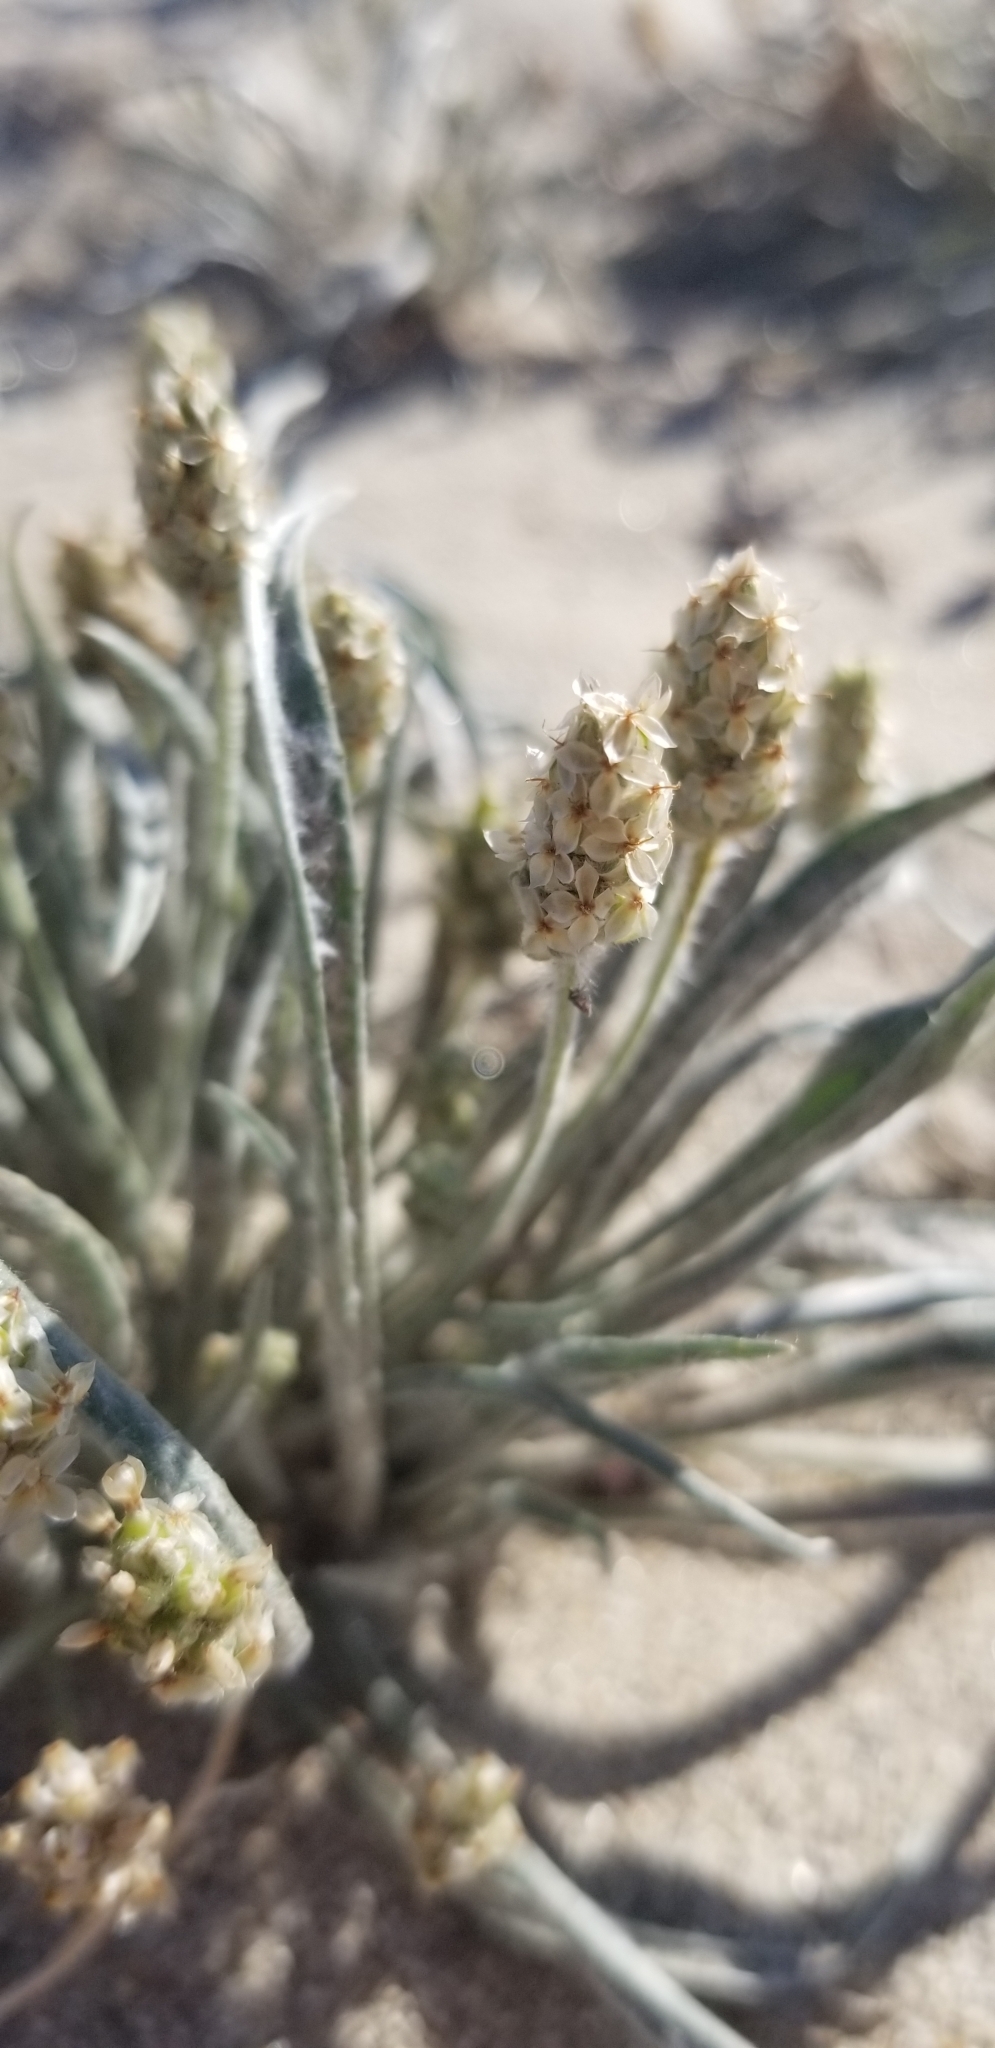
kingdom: Plantae
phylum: Tracheophyta
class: Magnoliopsida
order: Lamiales
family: Plantaginaceae
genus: Plantago
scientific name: Plantago ovata
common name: Blond plantain
